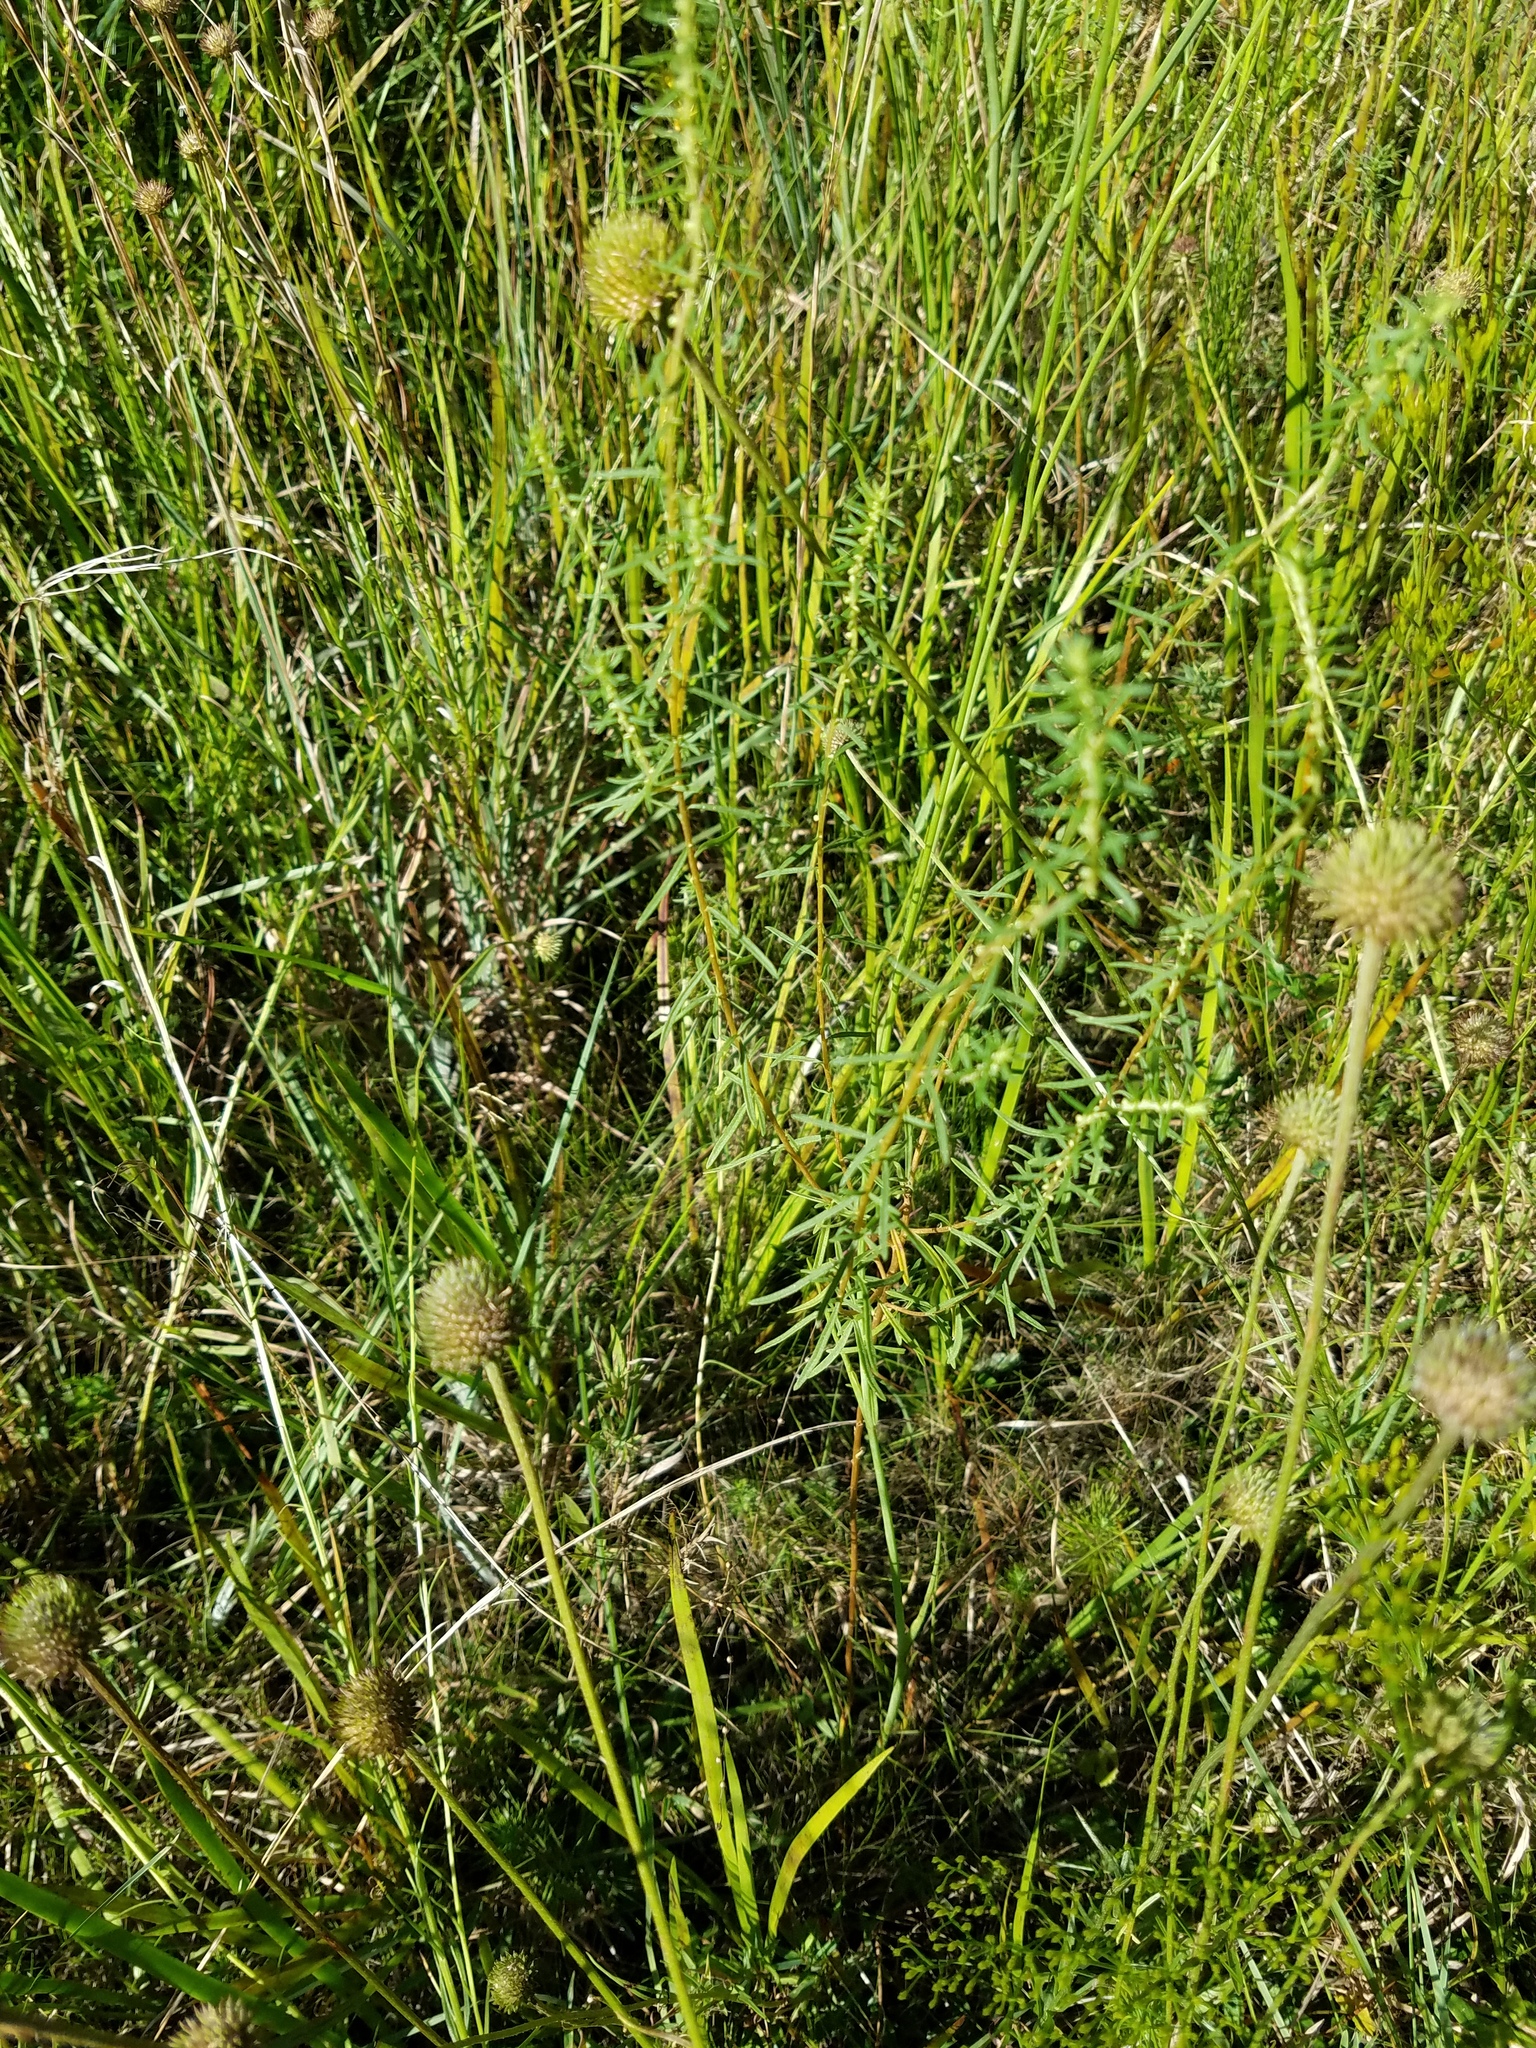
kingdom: Plantae
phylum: Tracheophyta
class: Magnoliopsida
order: Asterales
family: Asteraceae
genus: Iva
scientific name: Iva microcephala
